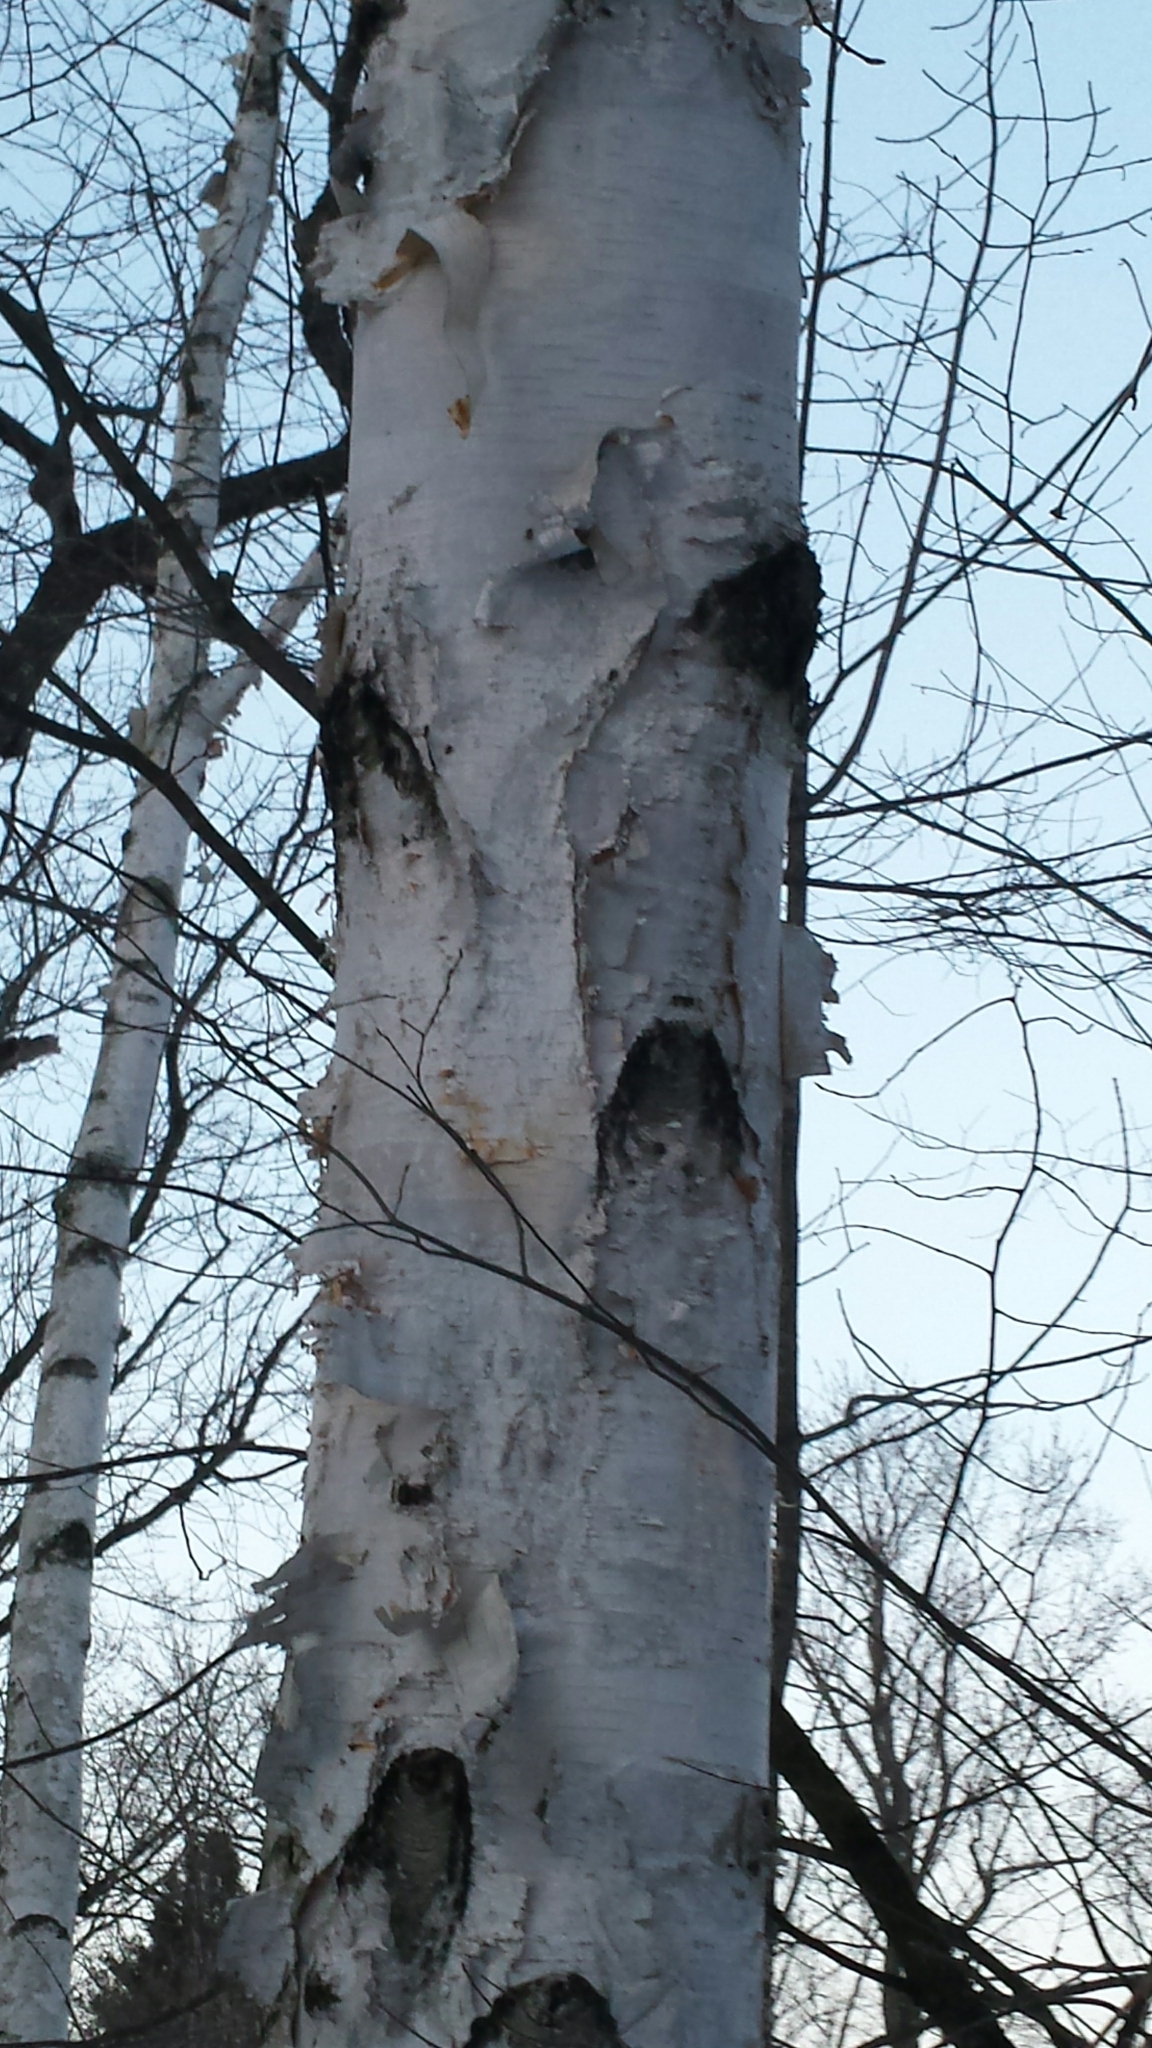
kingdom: Plantae
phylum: Tracheophyta
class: Magnoliopsida
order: Fagales
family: Betulaceae
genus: Betula
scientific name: Betula papyrifera
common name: Paper birch
